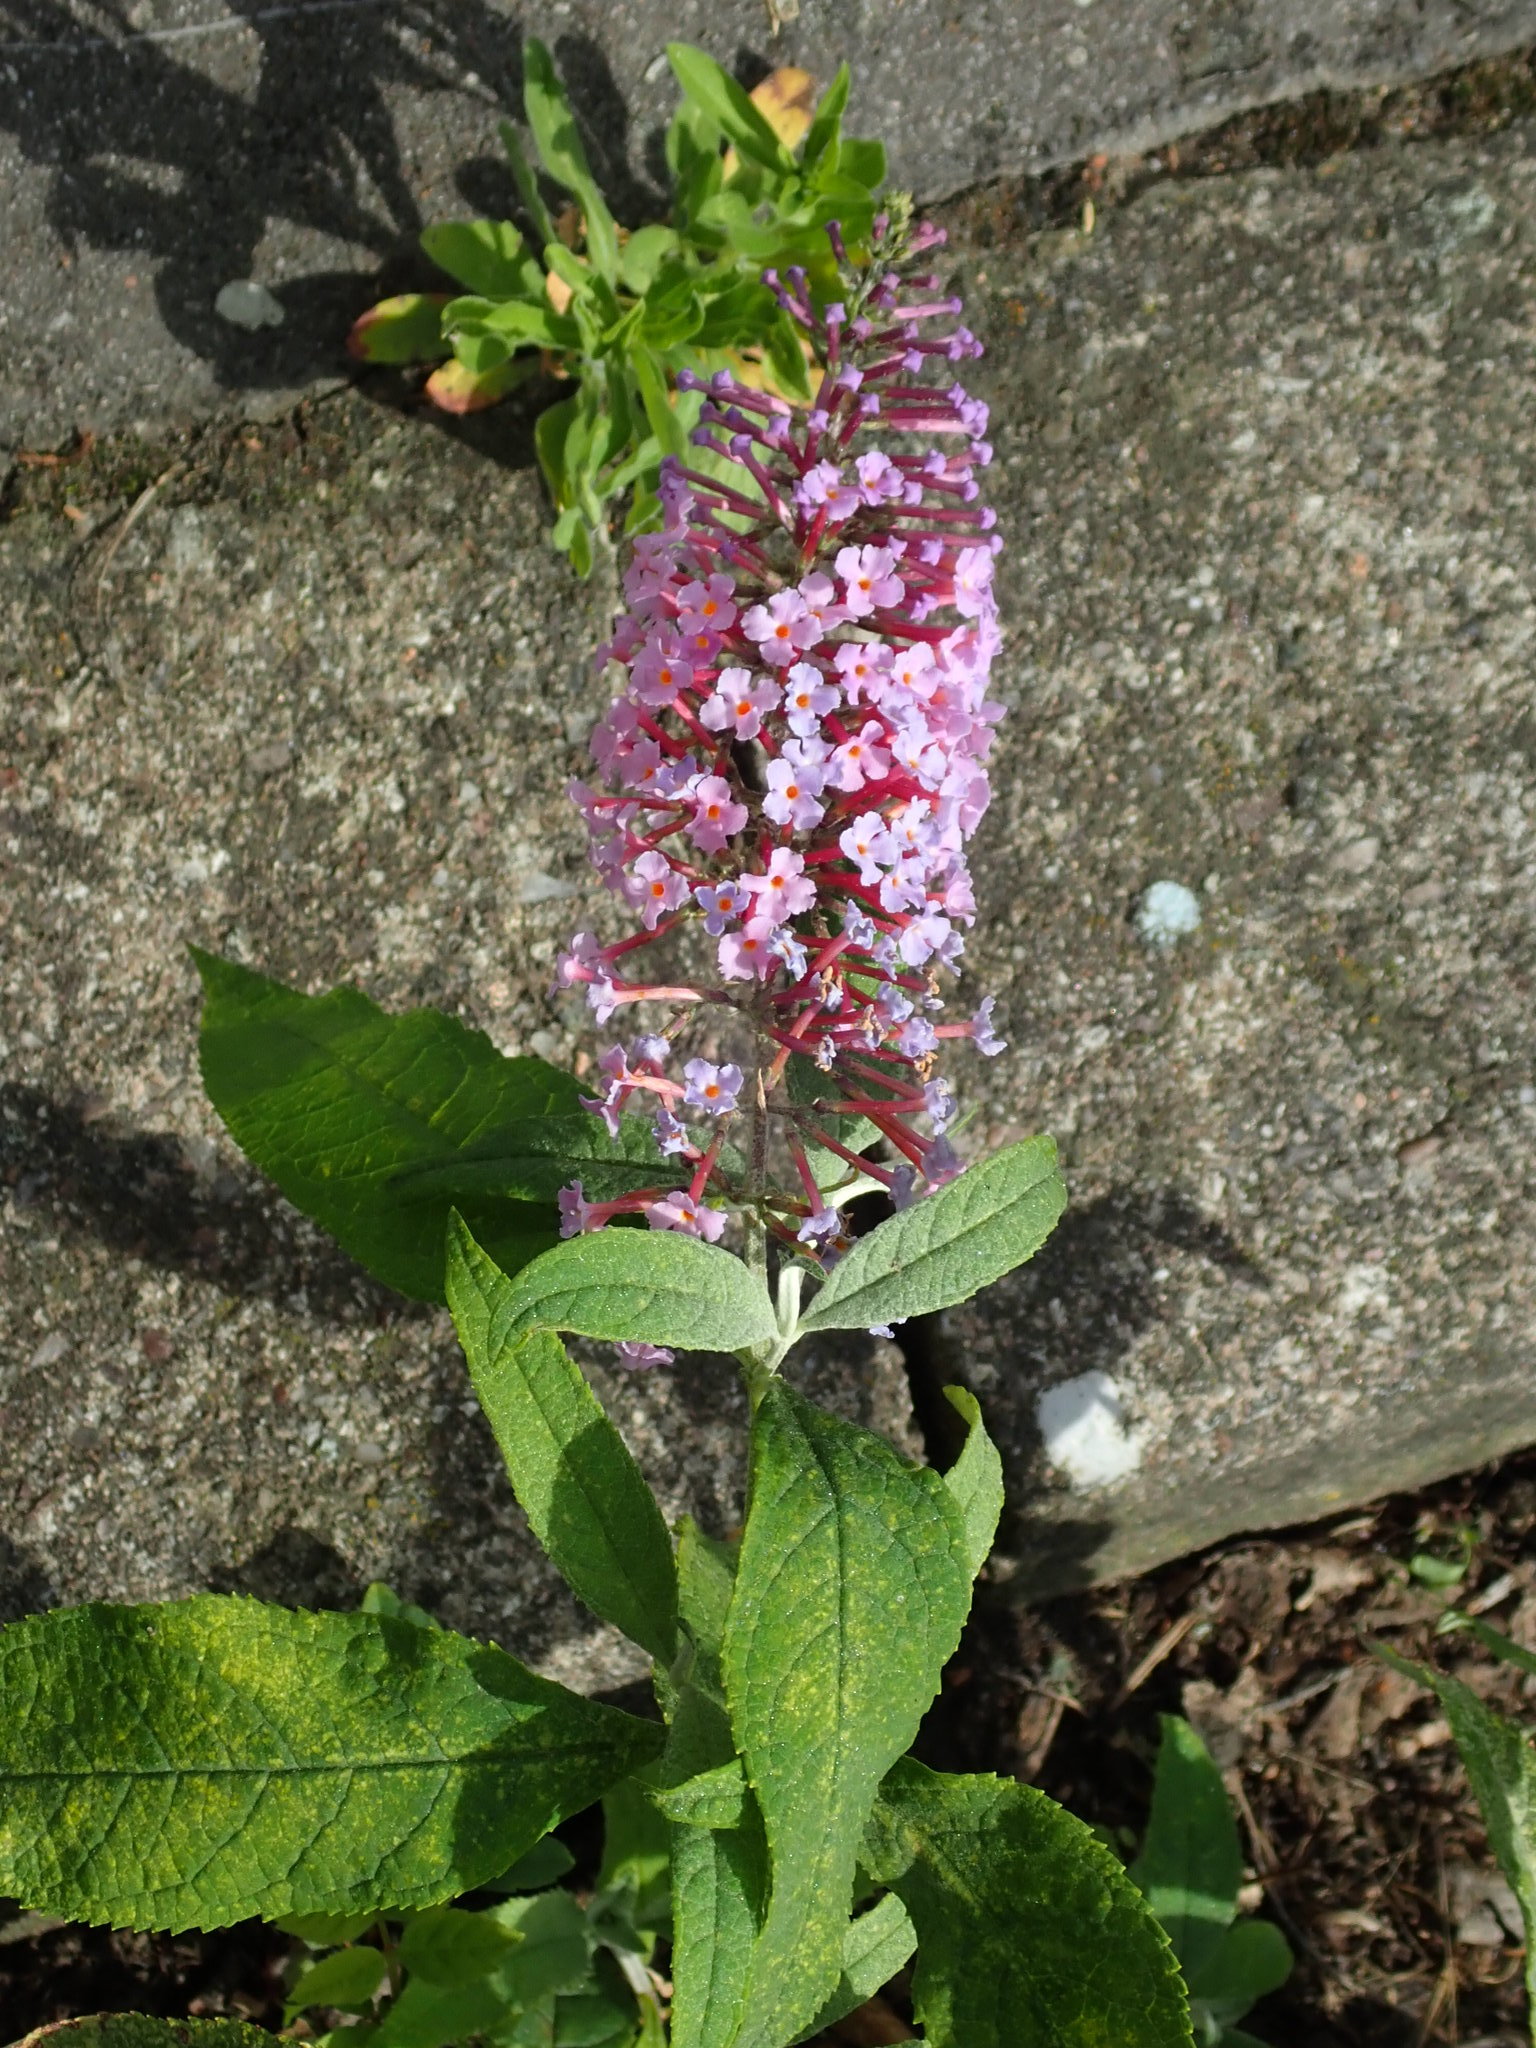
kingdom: Plantae
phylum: Tracheophyta
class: Magnoliopsida
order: Lamiales
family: Scrophulariaceae
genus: Buddleja
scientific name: Buddleja davidii
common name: Butterfly-bush
